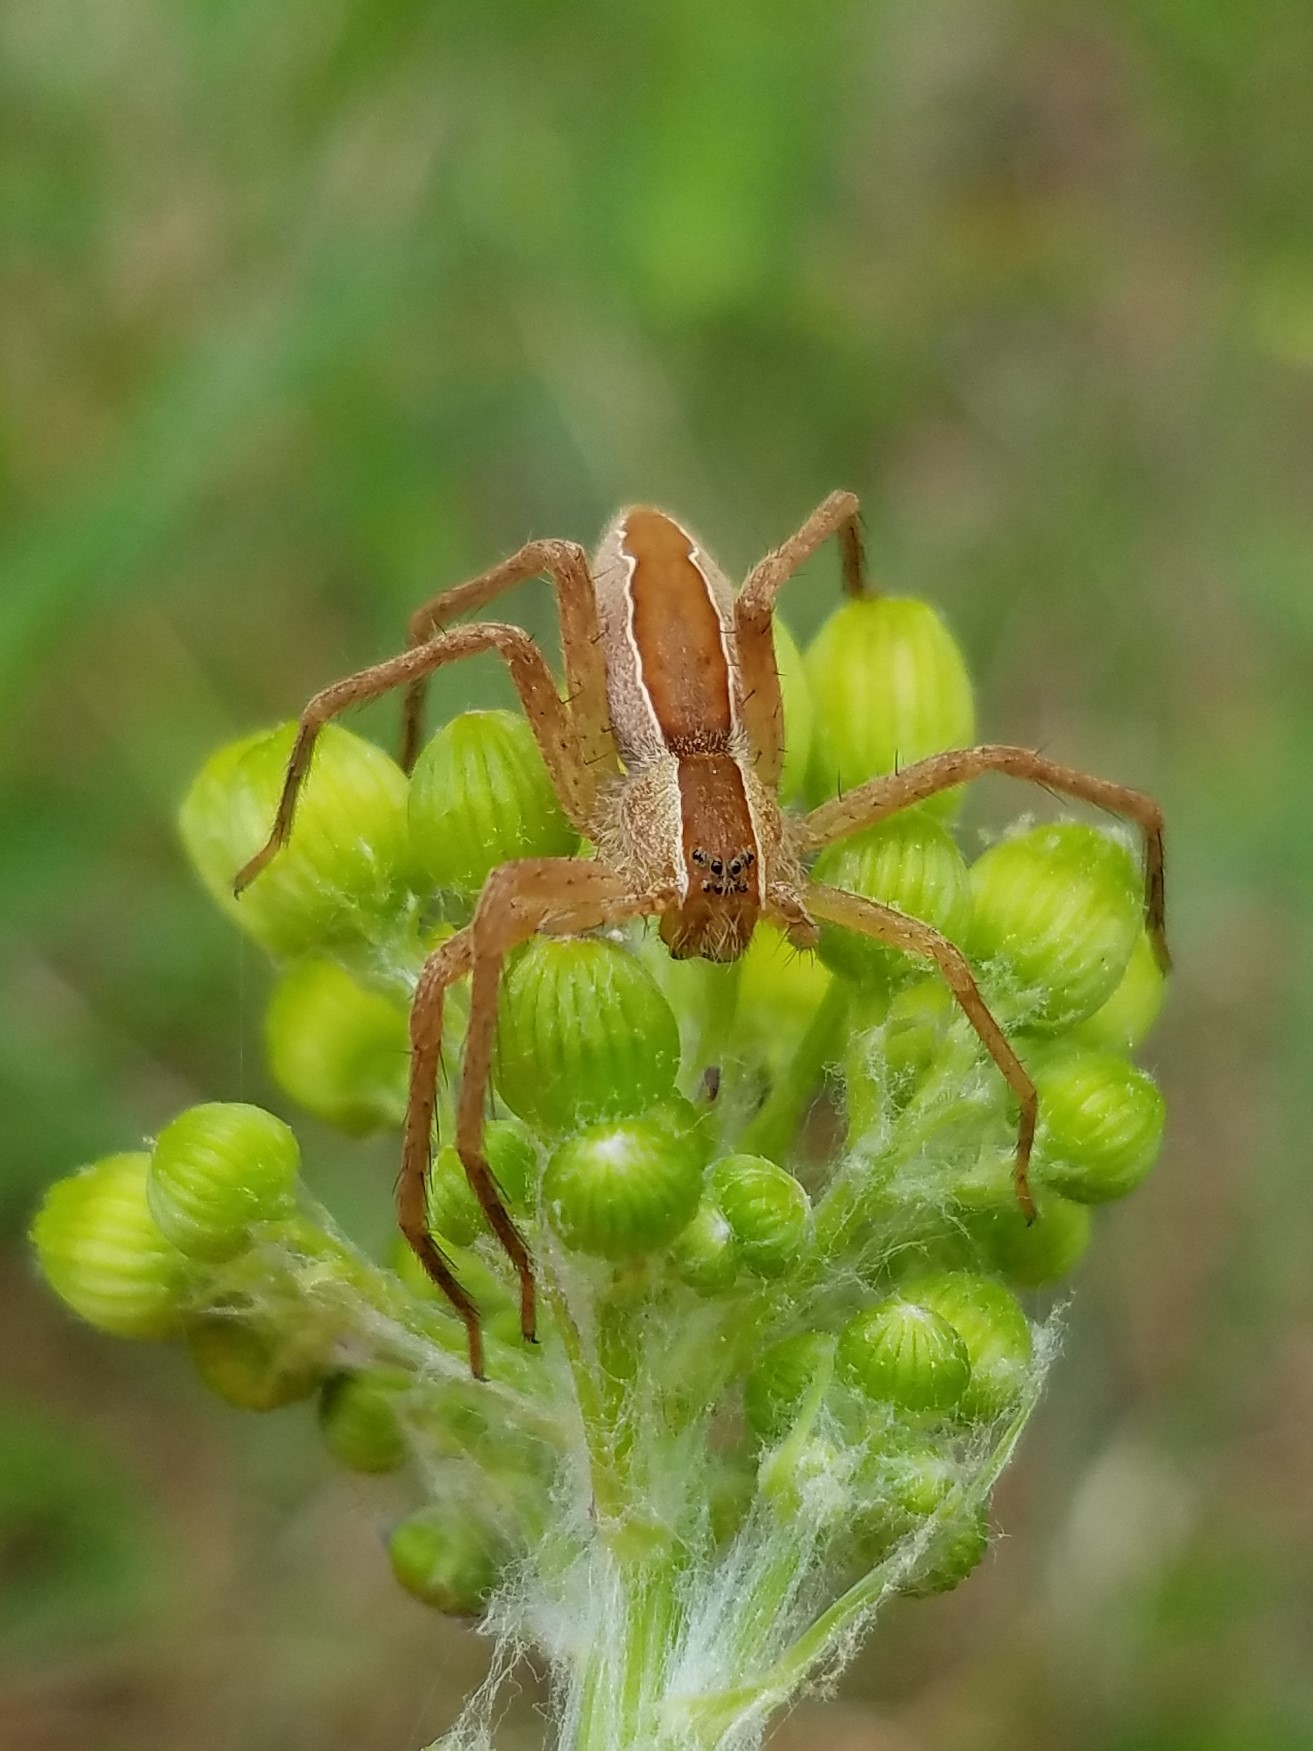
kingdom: Animalia
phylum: Arthropoda
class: Arachnida
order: Araneae
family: Pisauridae
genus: Pisaurina
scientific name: Pisaurina mira
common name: American nursery web spider
